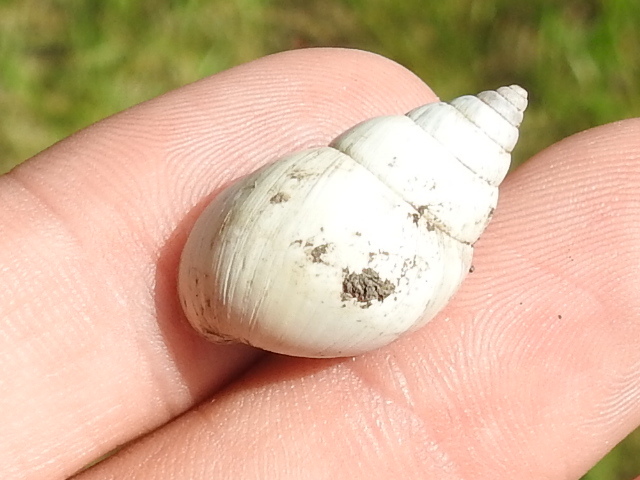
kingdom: Animalia
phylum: Mollusca
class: Gastropoda
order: Stylommatophora
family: Bulimulidae
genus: Rabdotus
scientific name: Rabdotus mooreanus
